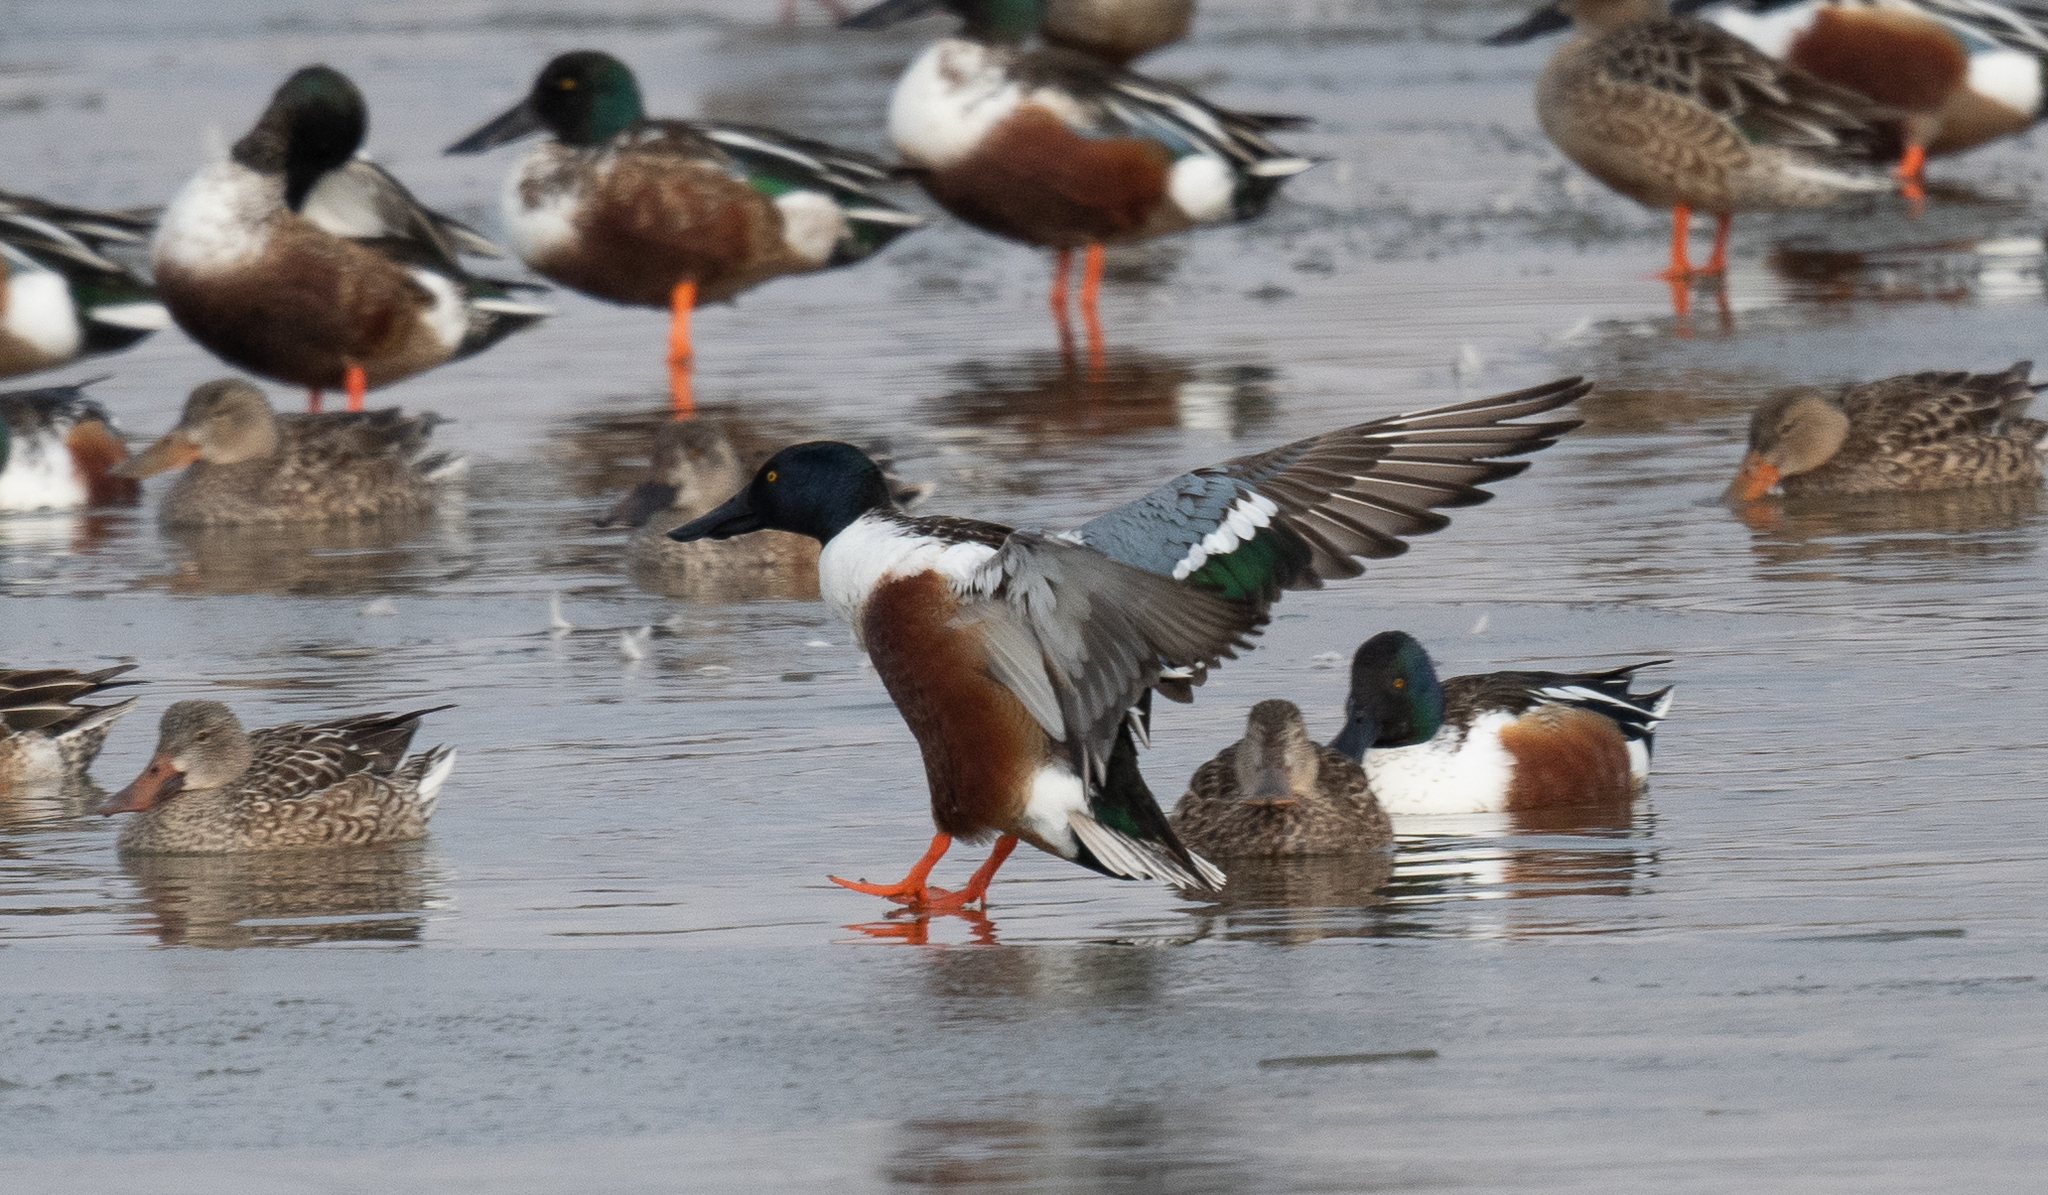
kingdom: Animalia
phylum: Chordata
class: Aves
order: Anseriformes
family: Anatidae
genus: Spatula
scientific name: Spatula clypeata
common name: Northern shoveler
